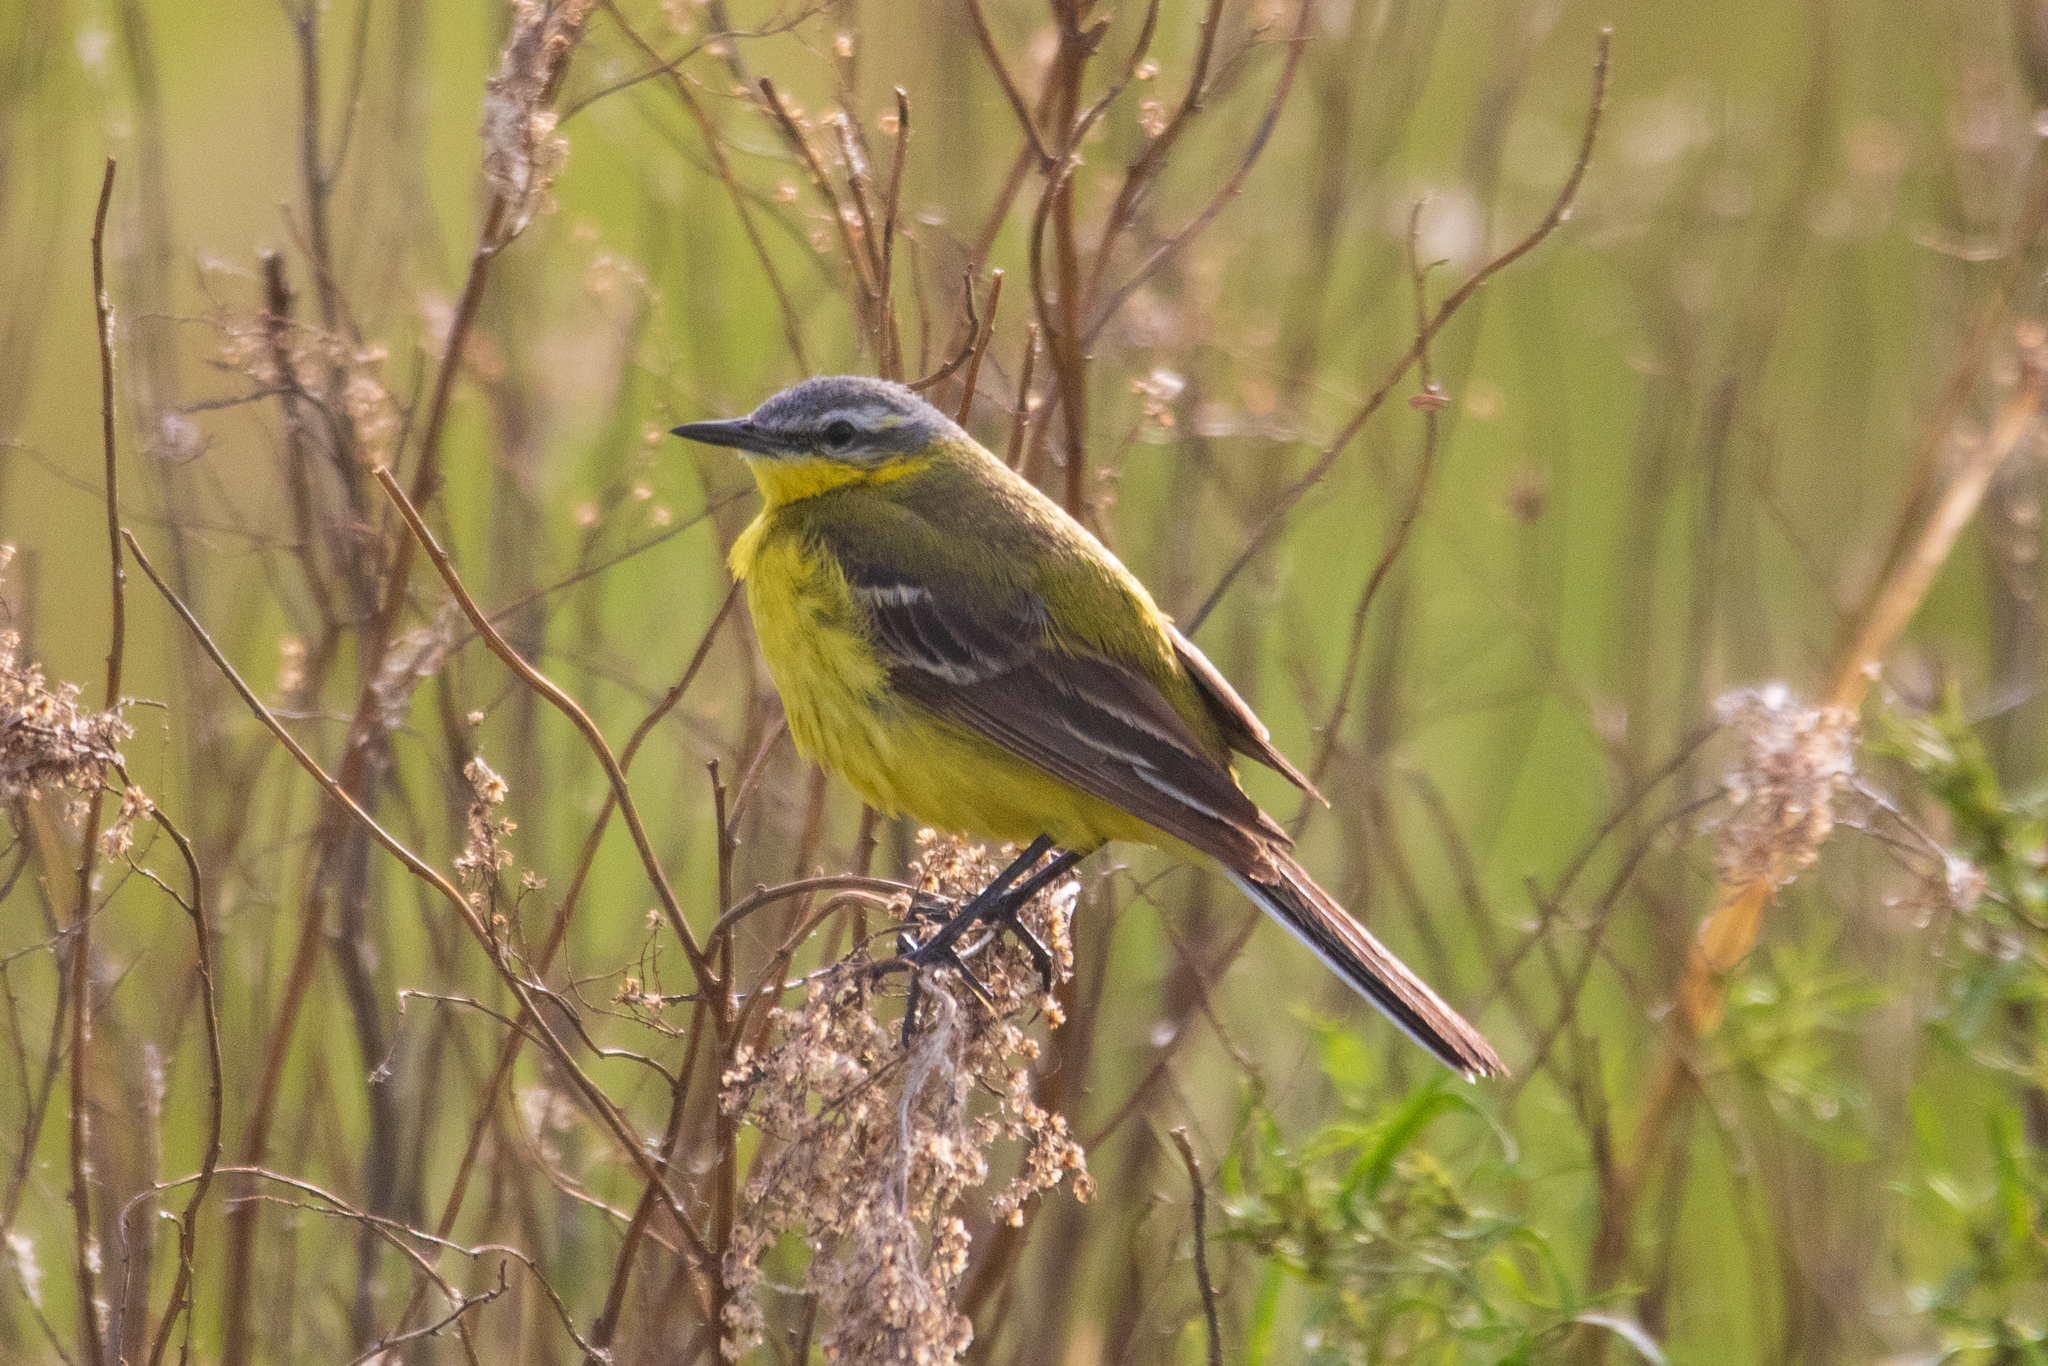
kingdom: Animalia
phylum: Chordata
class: Aves
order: Passeriformes
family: Motacillidae
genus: Motacilla
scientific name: Motacilla flava
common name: Western yellow wagtail
